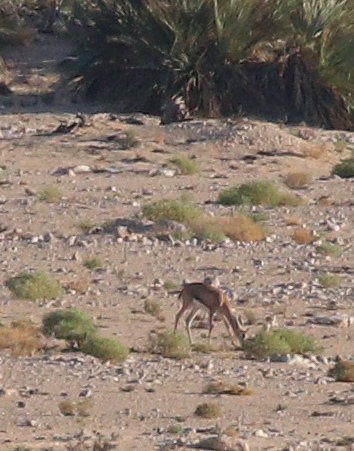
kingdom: Animalia
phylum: Chordata
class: Mammalia
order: Artiodactyla
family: Bovidae
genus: Gazella
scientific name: Gazella arabica
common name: Arabian gazelle
